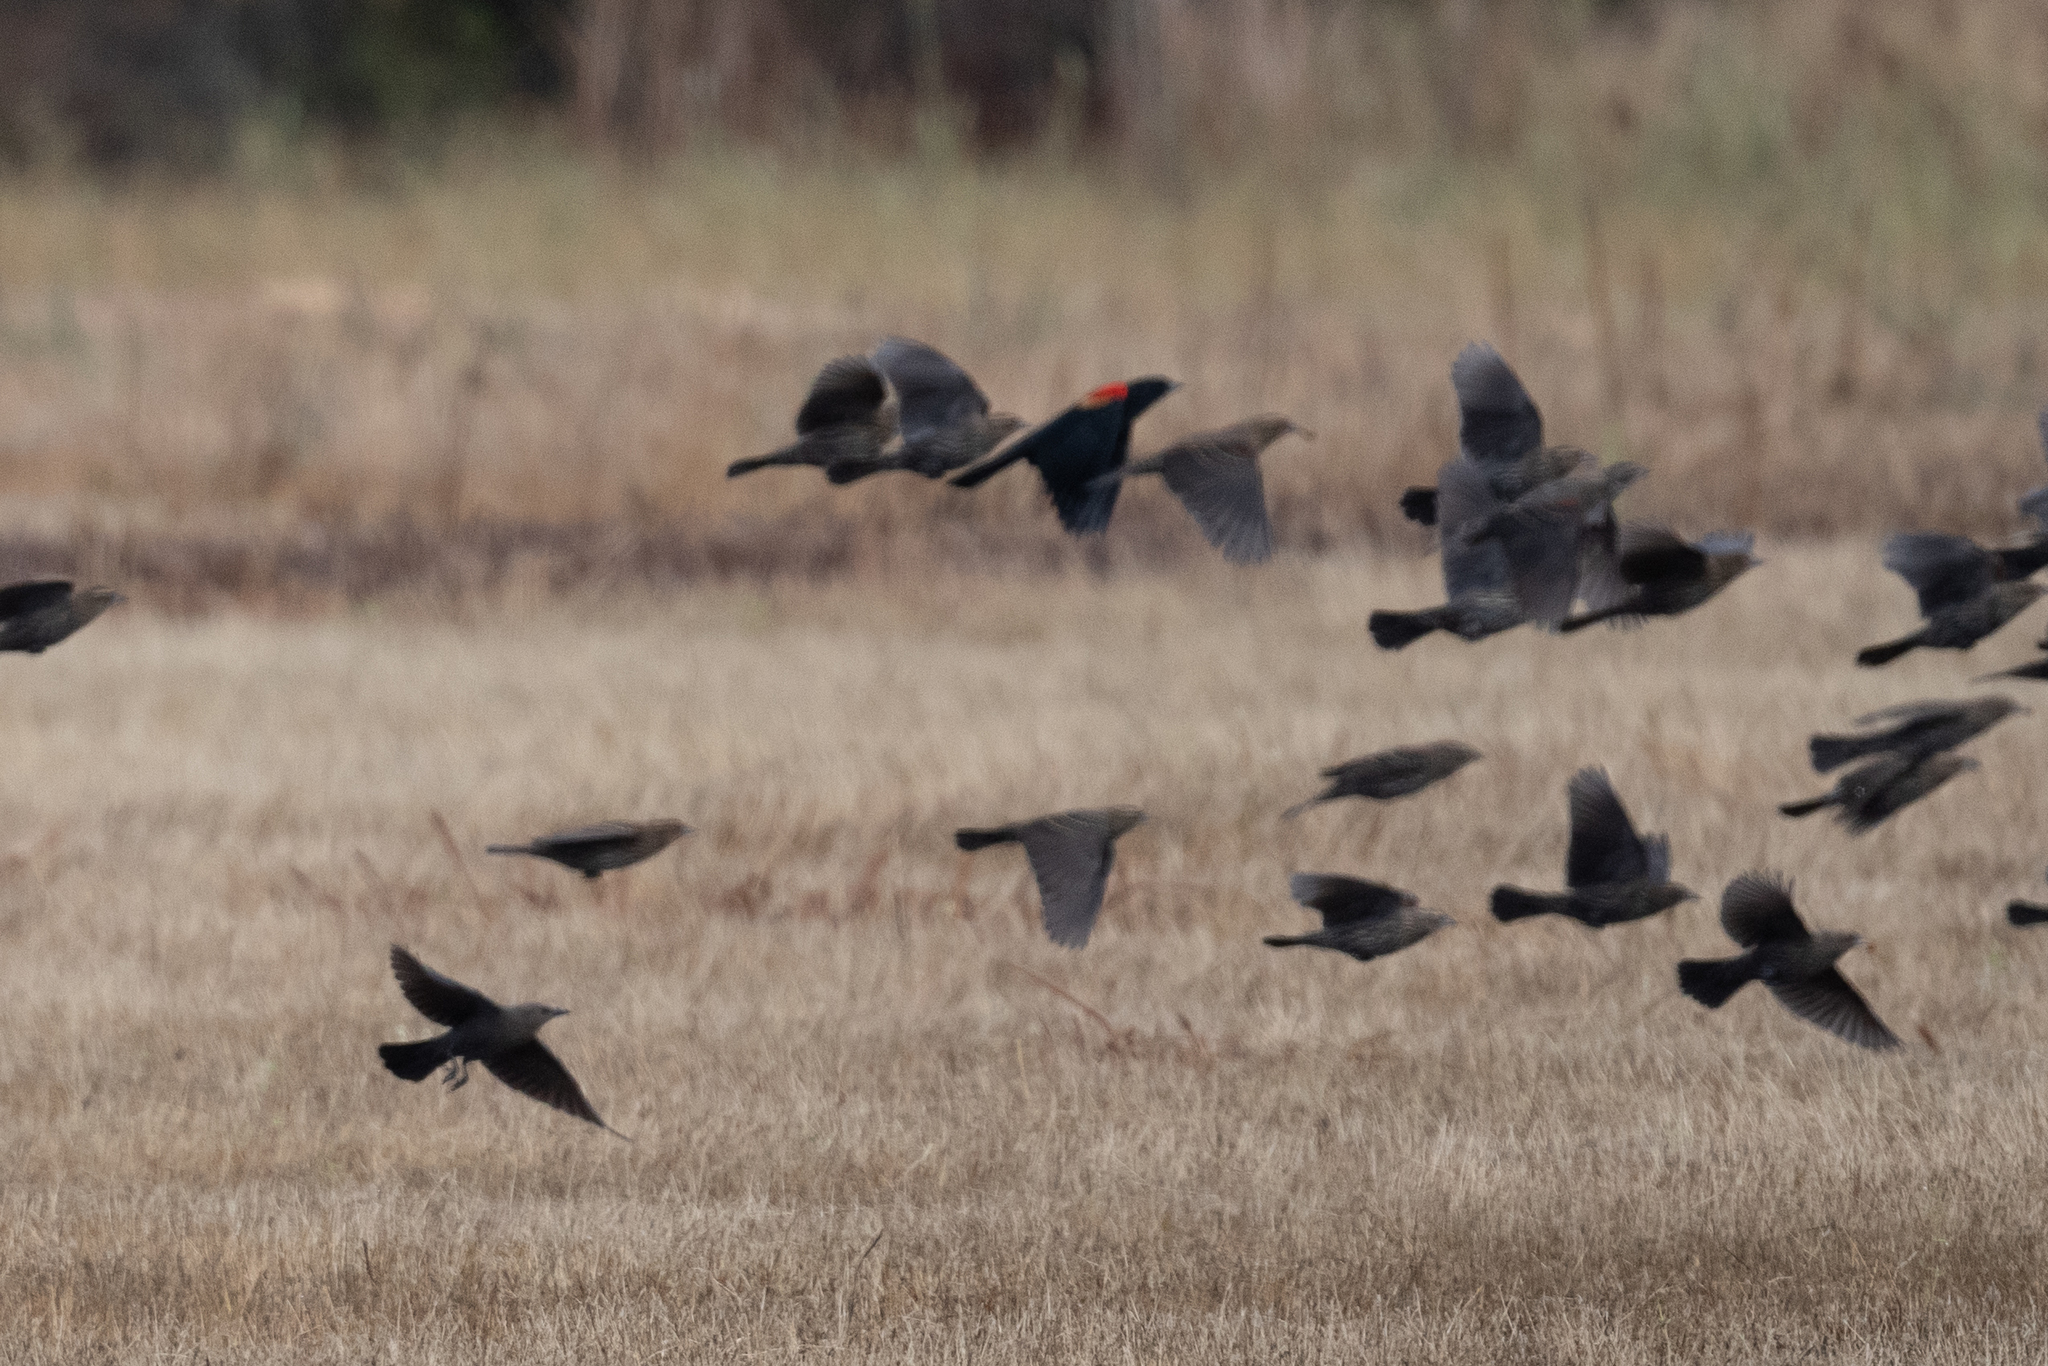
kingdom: Animalia
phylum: Chordata
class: Aves
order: Passeriformes
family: Icteridae
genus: Agelaius
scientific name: Agelaius phoeniceus
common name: Red-winged blackbird
